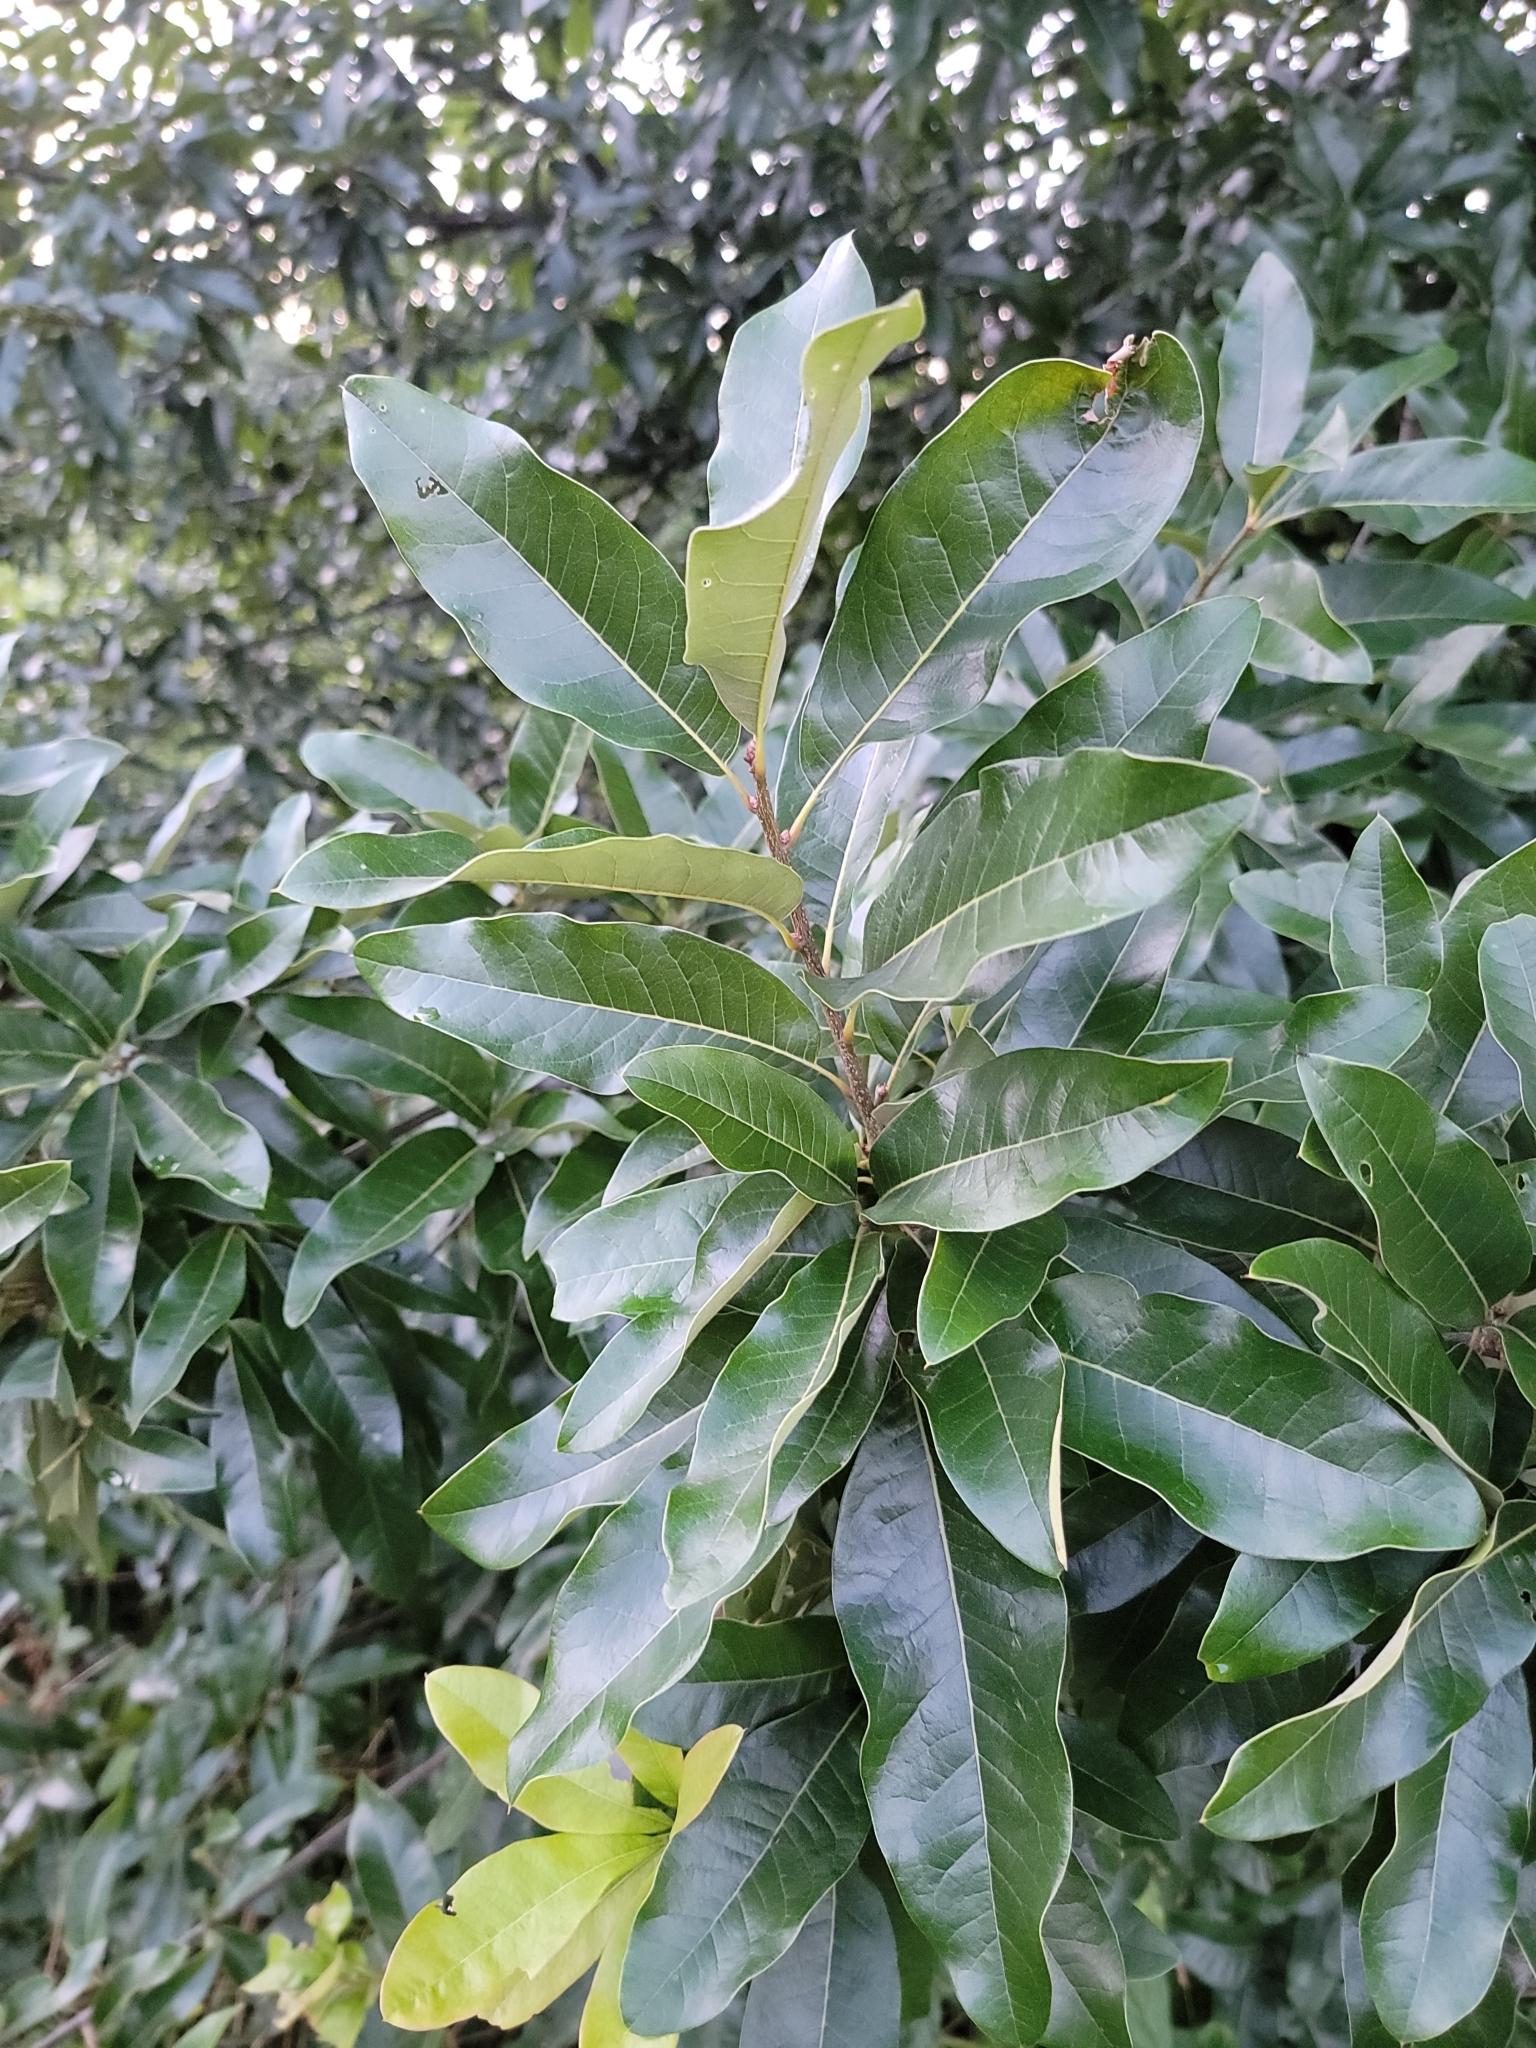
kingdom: Plantae
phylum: Tracheophyta
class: Magnoliopsida
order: Fagales
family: Fagaceae
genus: Quercus
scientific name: Quercus imbricaria
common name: Shingle oak
